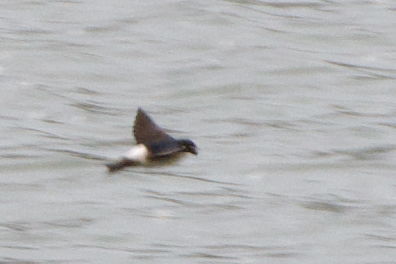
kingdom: Animalia
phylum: Chordata
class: Aves
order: Passeriformes
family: Hirundinidae
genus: Delichon
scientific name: Delichon urbicum
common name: Common house martin
